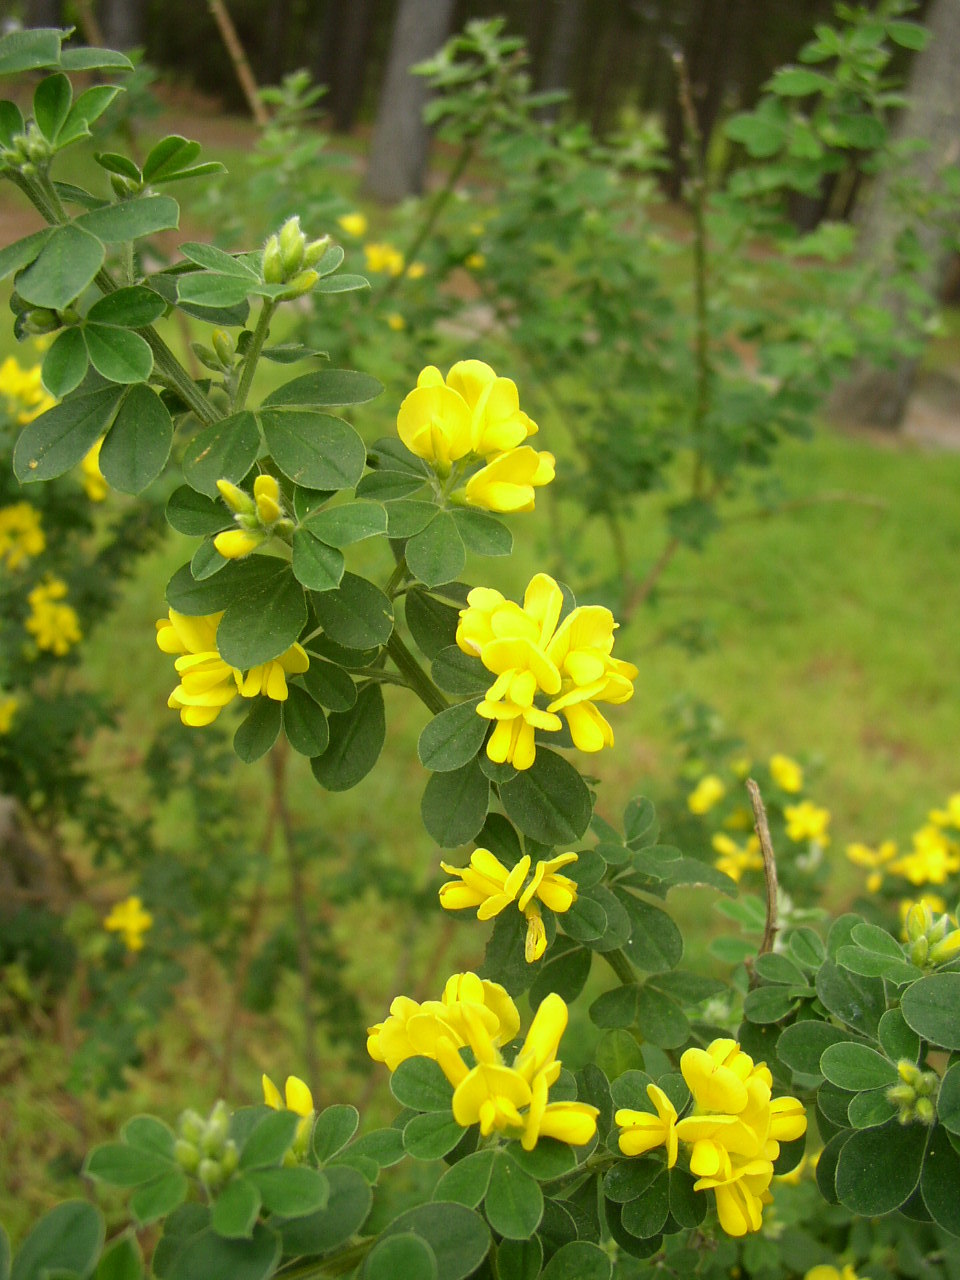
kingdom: Plantae
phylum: Tracheophyta
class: Magnoliopsida
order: Fabales
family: Fabaceae
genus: Genista
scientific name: Genista monspessulana
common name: Montpellier broom
